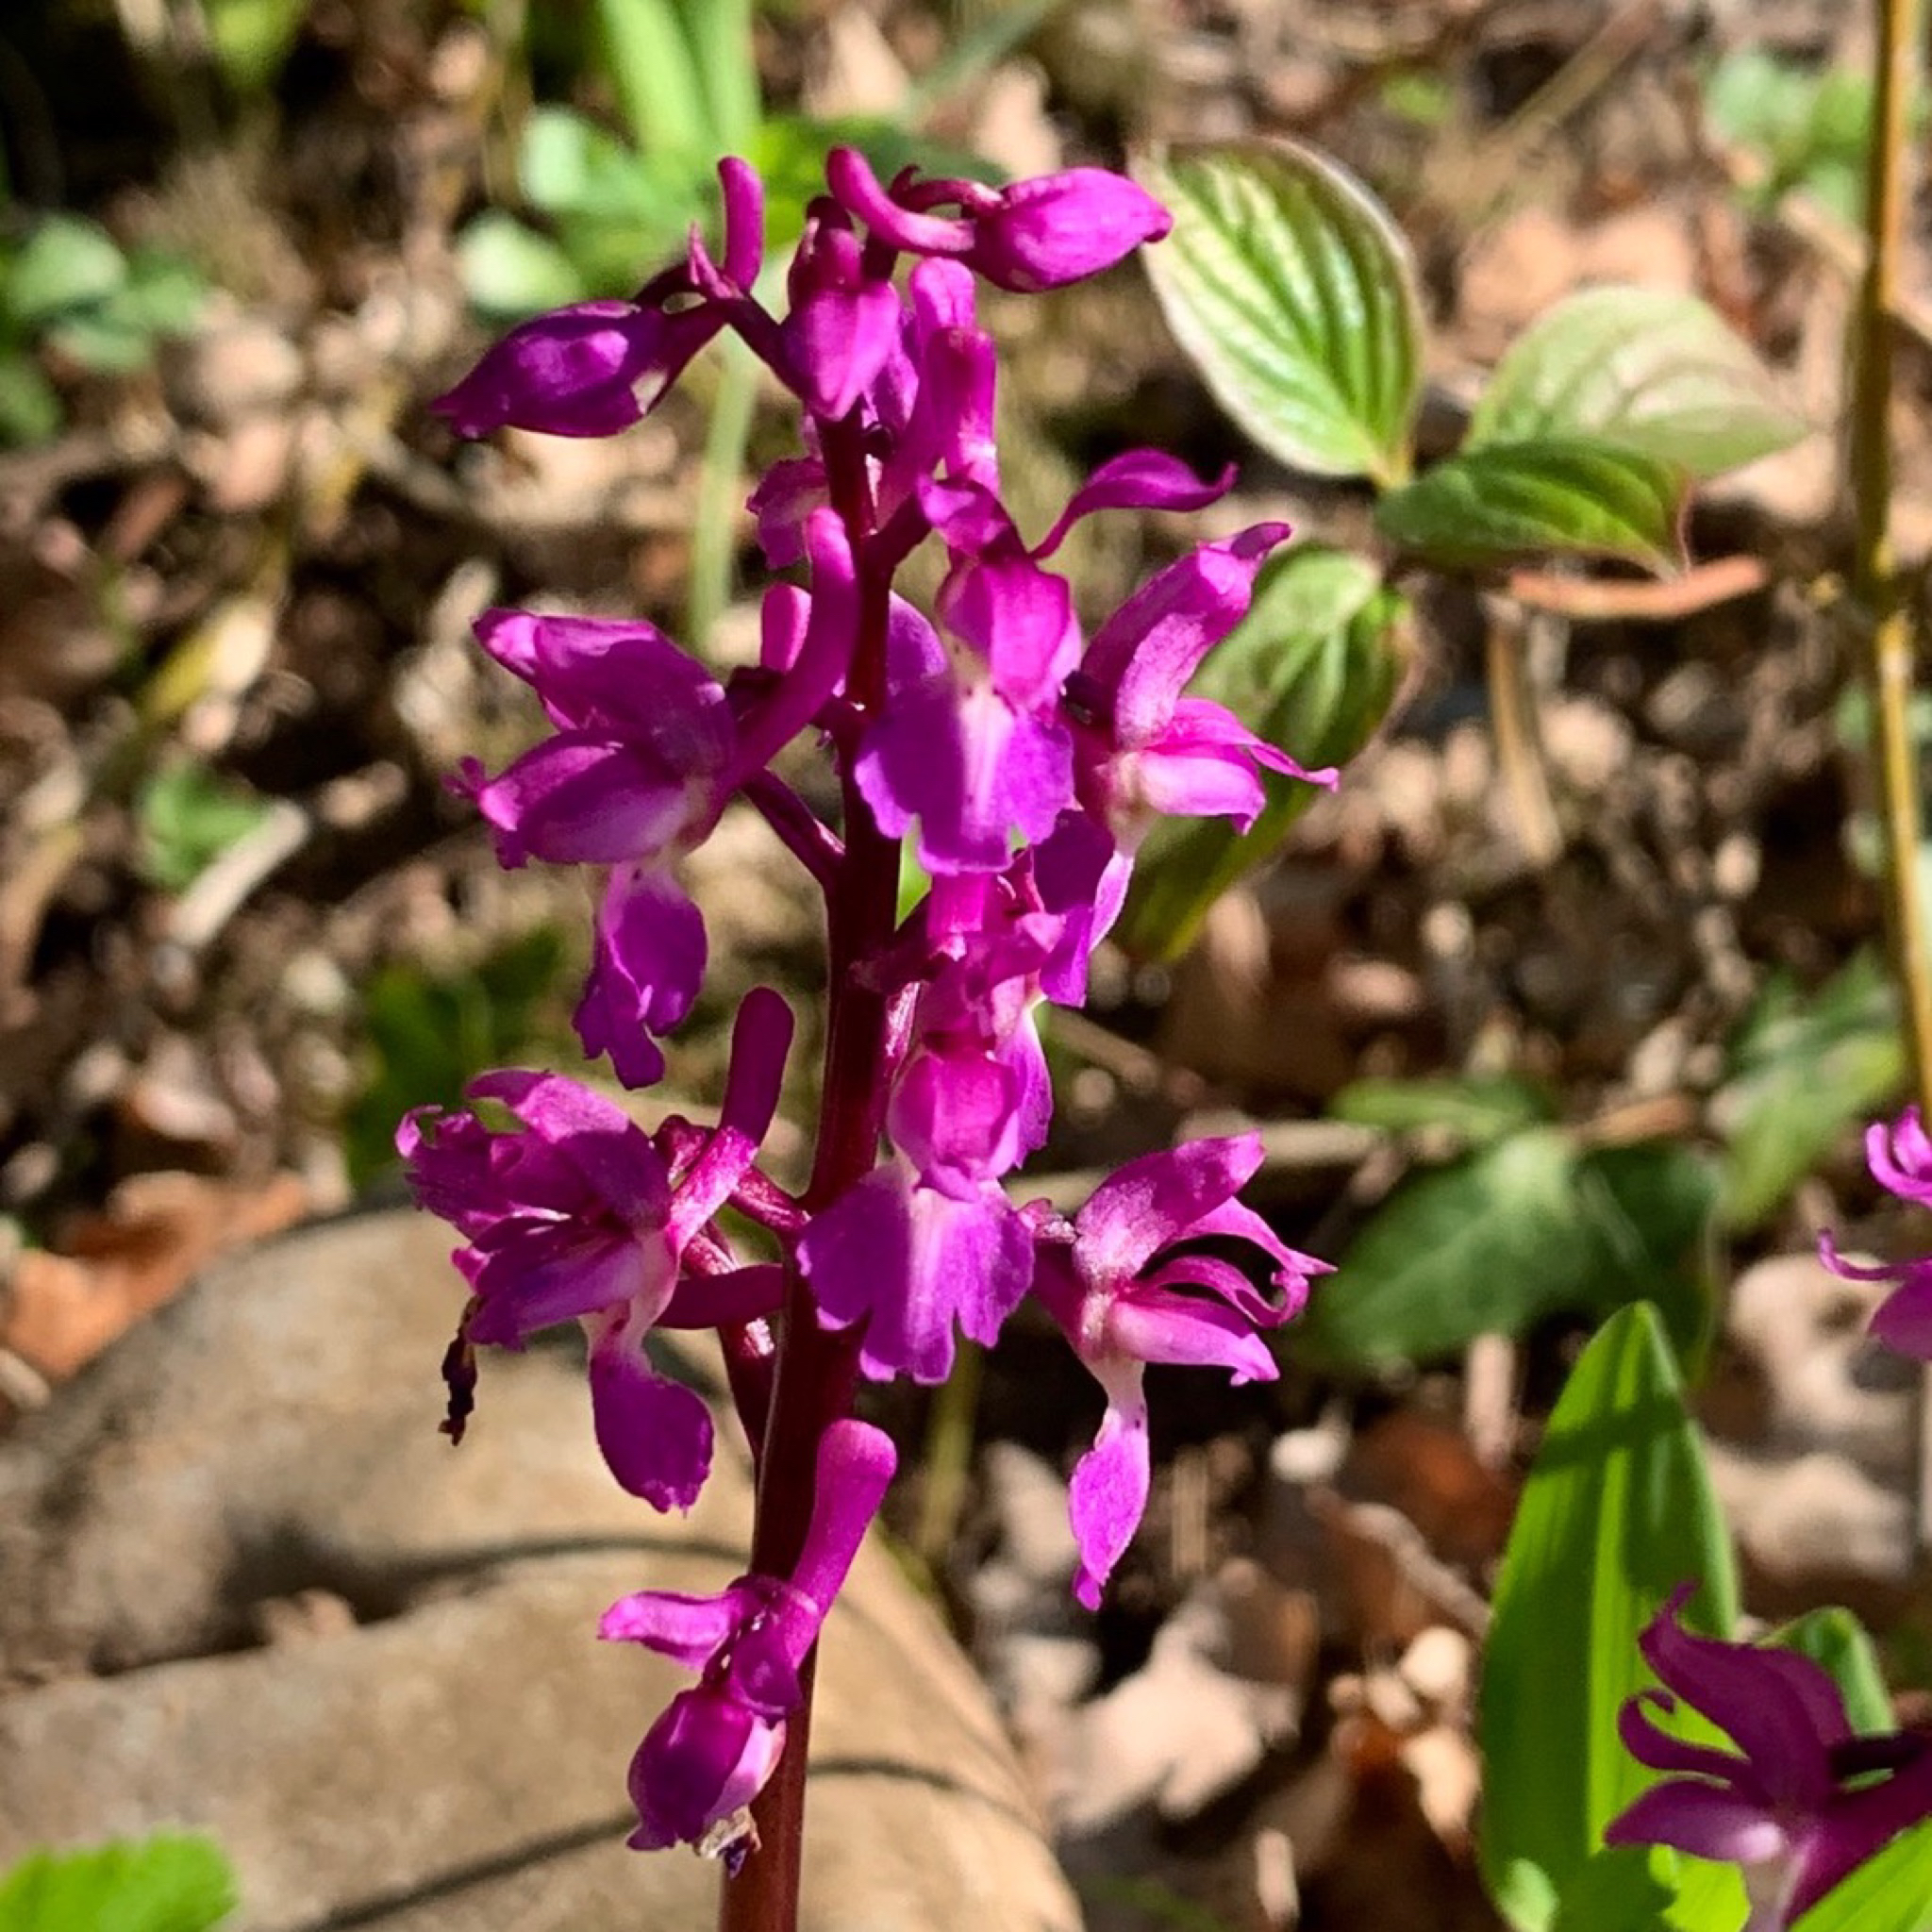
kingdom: Plantae
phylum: Tracheophyta
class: Liliopsida
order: Asparagales
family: Orchidaceae
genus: Orchis
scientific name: Orchis mascula
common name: Early-purple orchid
